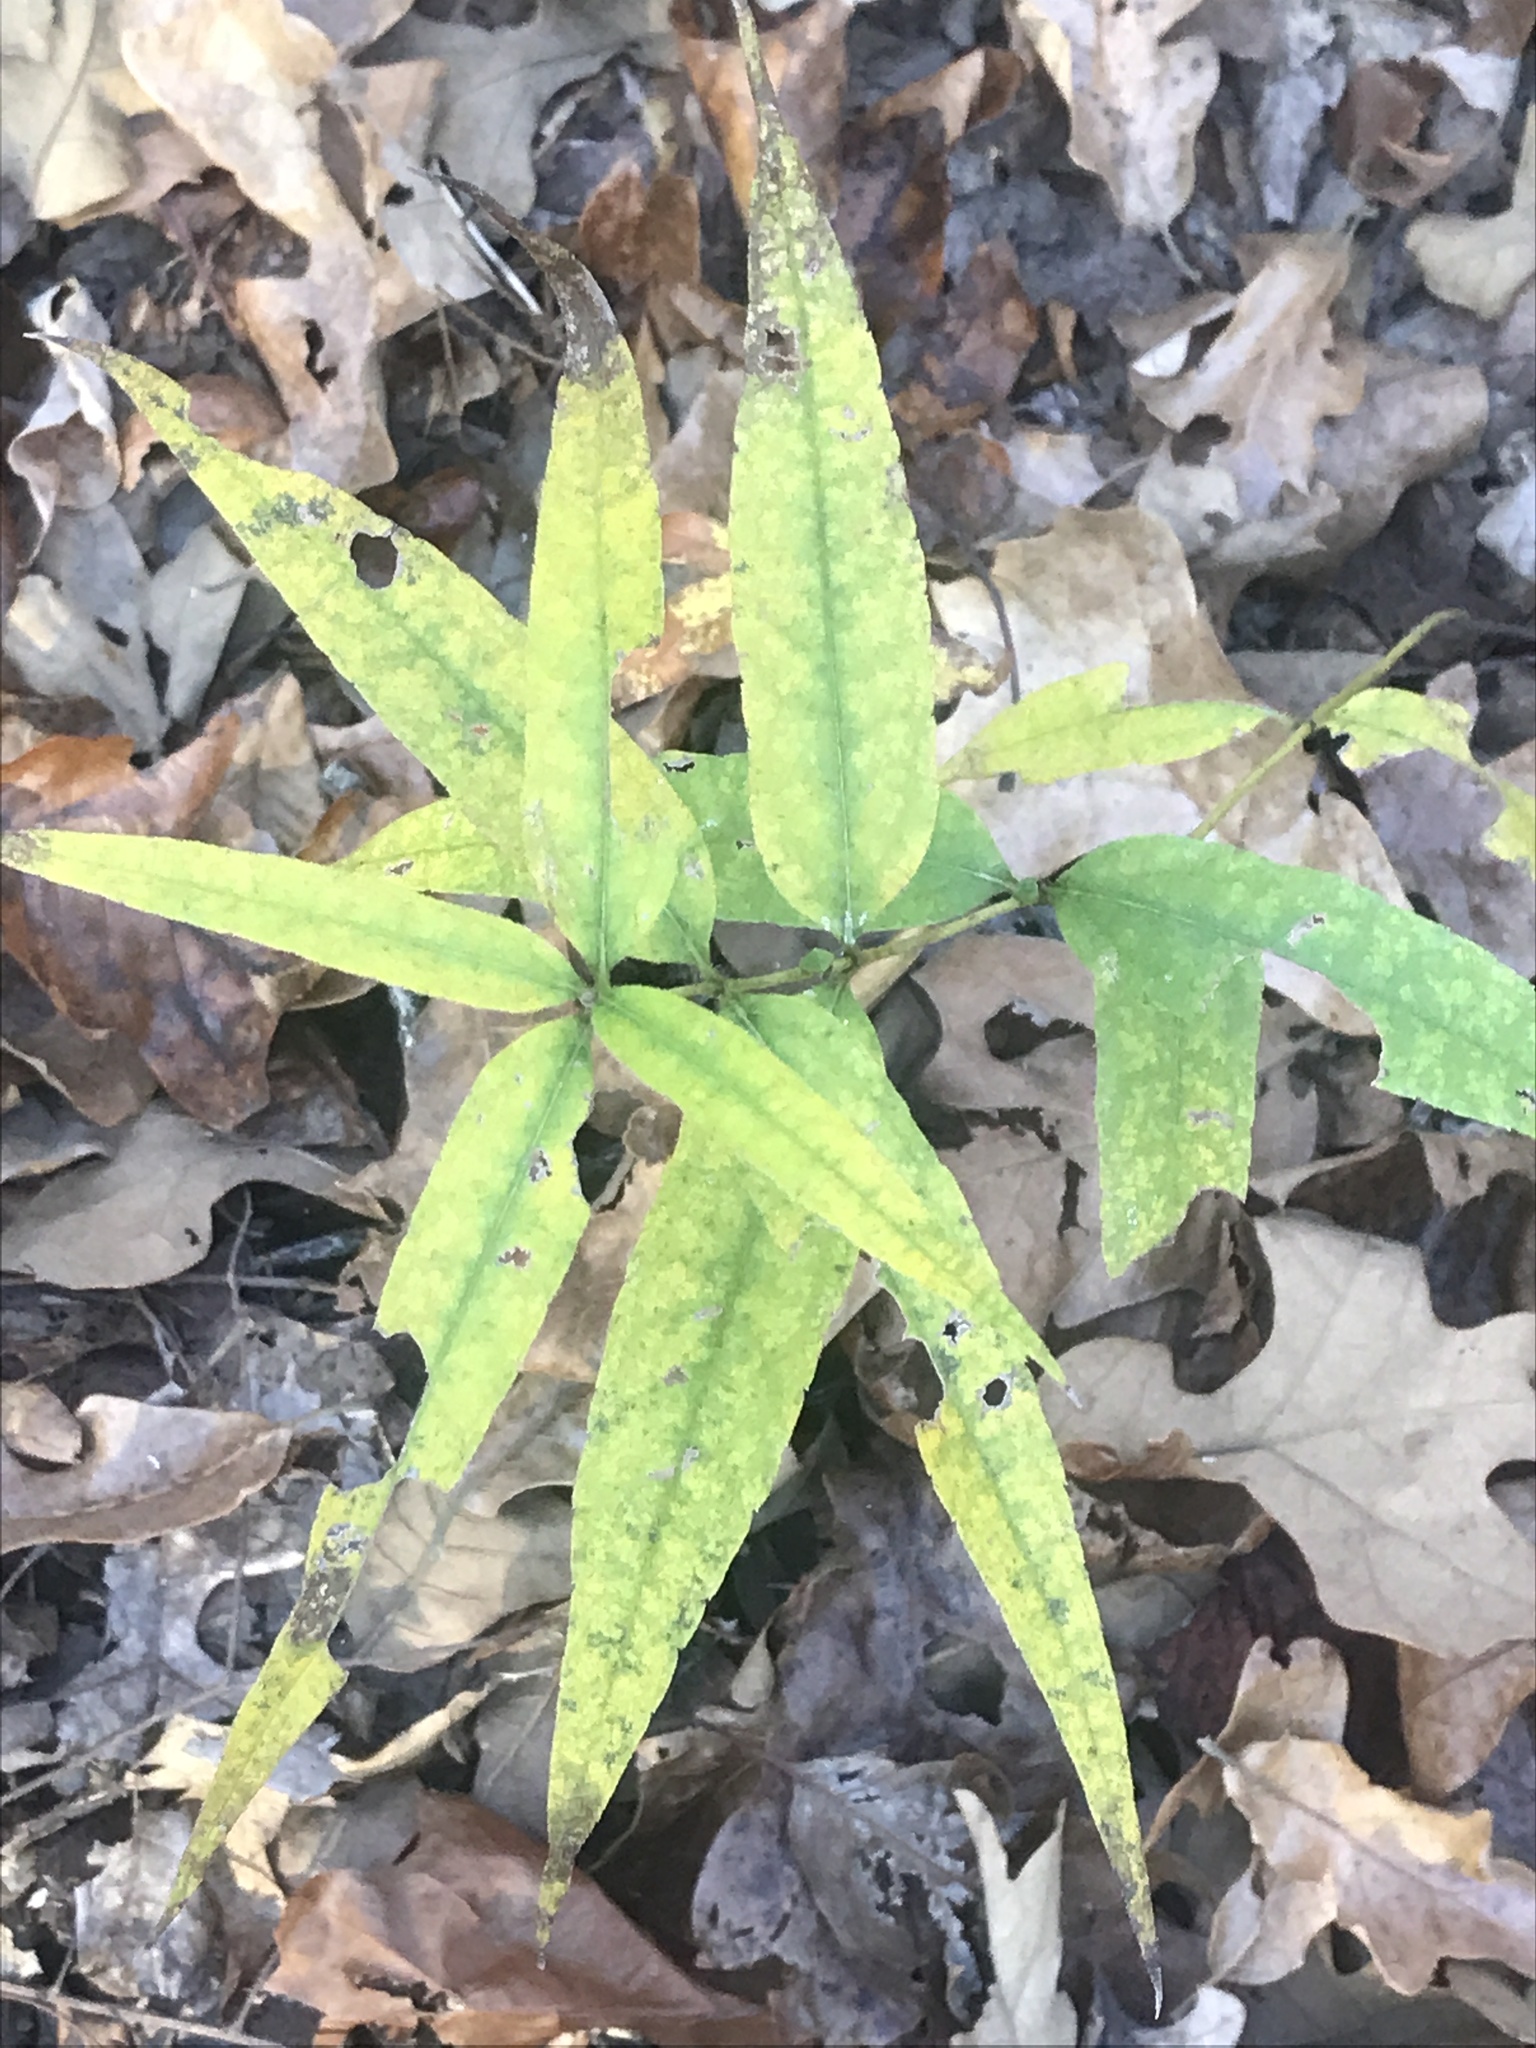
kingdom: Plantae
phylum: Tracheophyta
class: Magnoliopsida
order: Asterales
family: Asteraceae
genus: Helianthus
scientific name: Helianthus divaricatus
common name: Divergent sunflower
